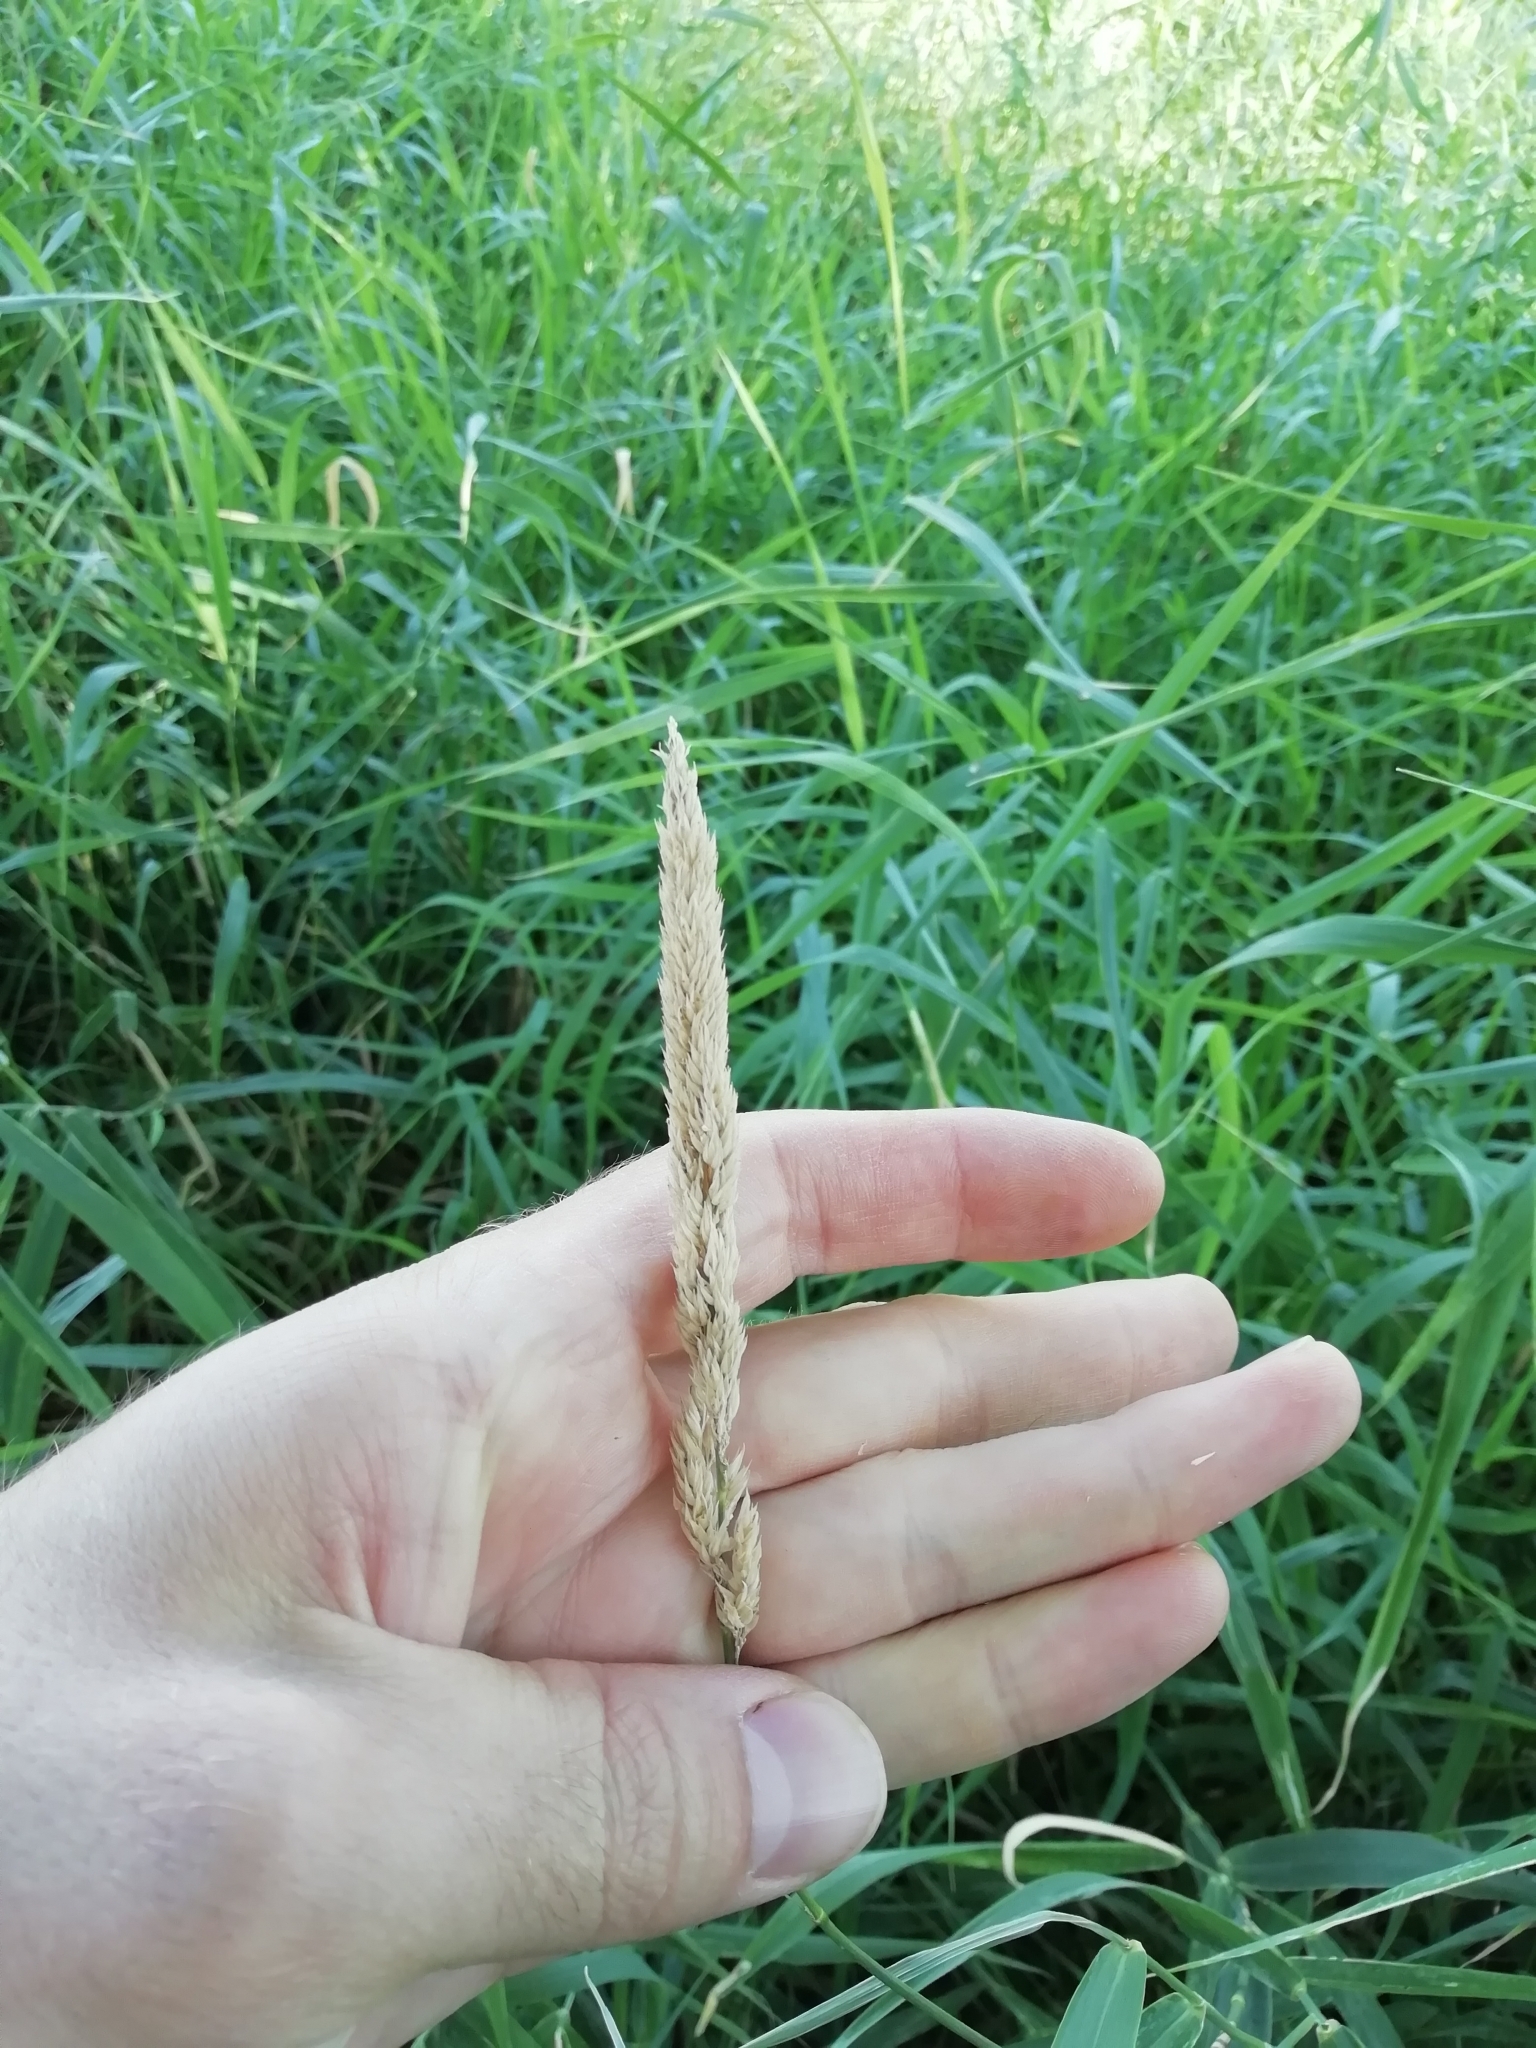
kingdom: Plantae
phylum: Tracheophyta
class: Liliopsida
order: Poales
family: Poaceae
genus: Phalaris
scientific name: Phalaris arundinacea
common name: Reed canary-grass
